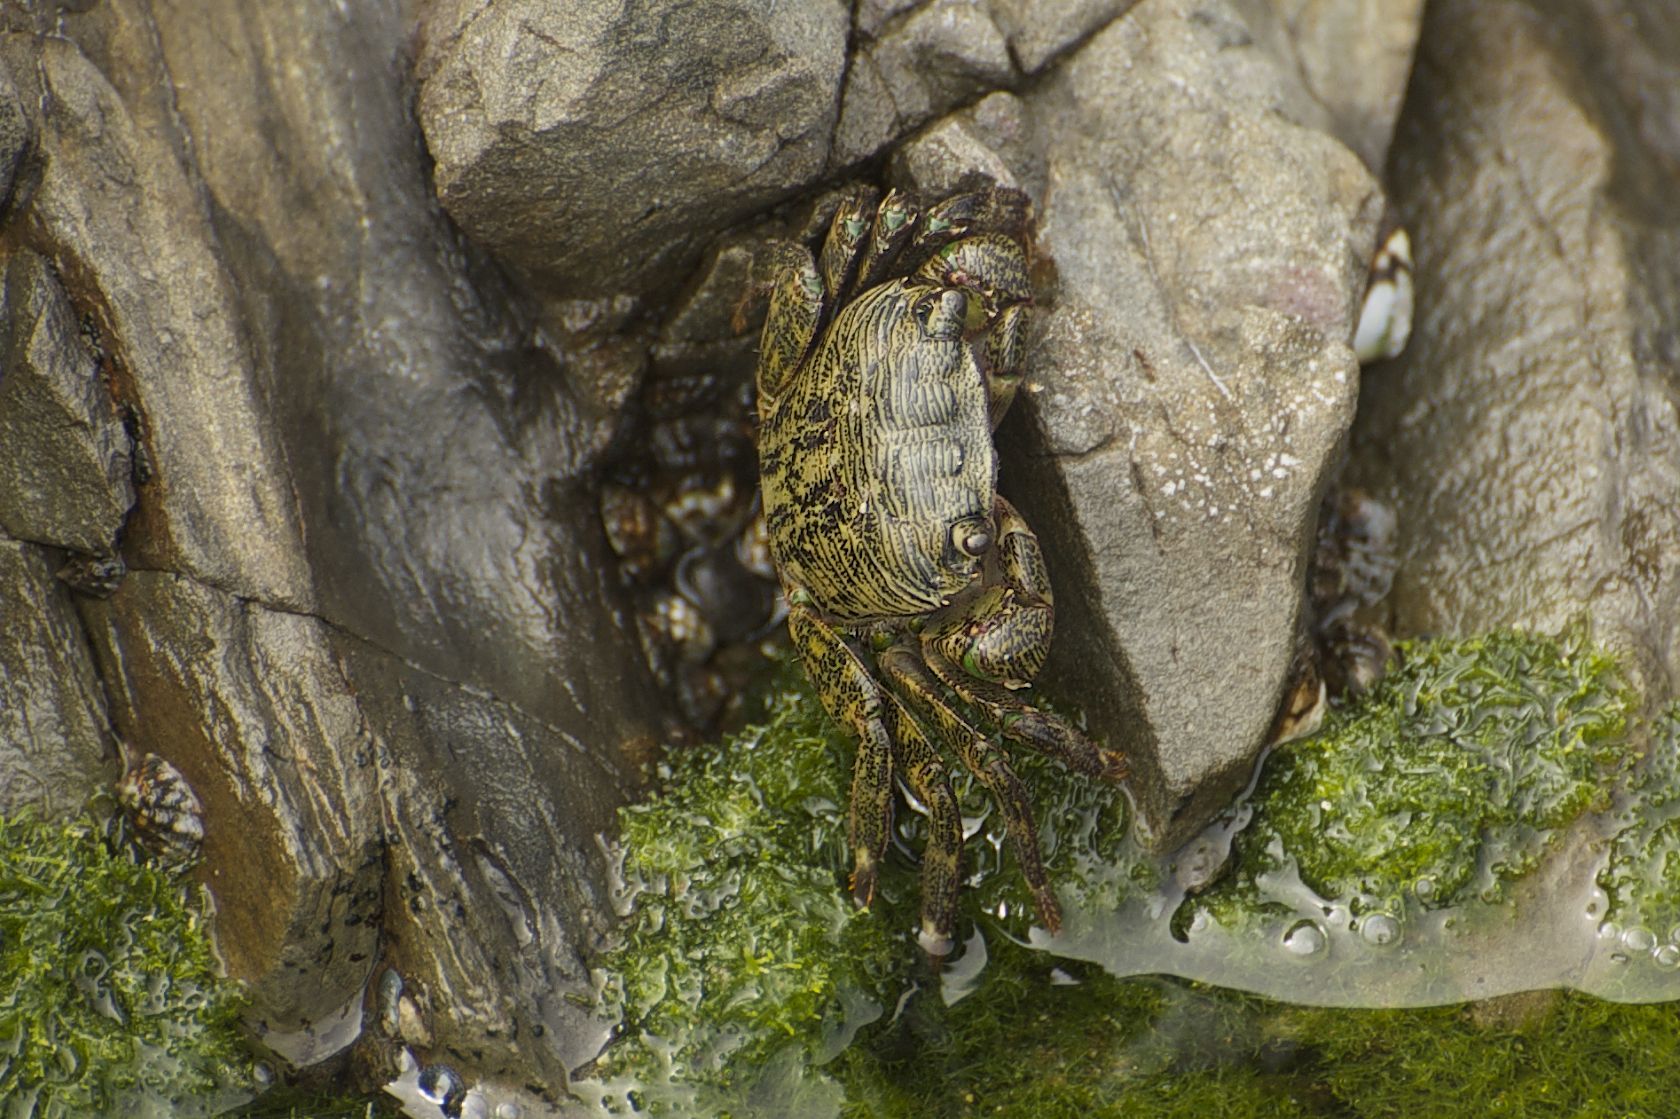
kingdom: Animalia
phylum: Arthropoda
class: Malacostraca
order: Decapoda
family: Grapsidae
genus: Pachygrapsus
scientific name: Pachygrapsus crassipes
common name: Striped shore crab
